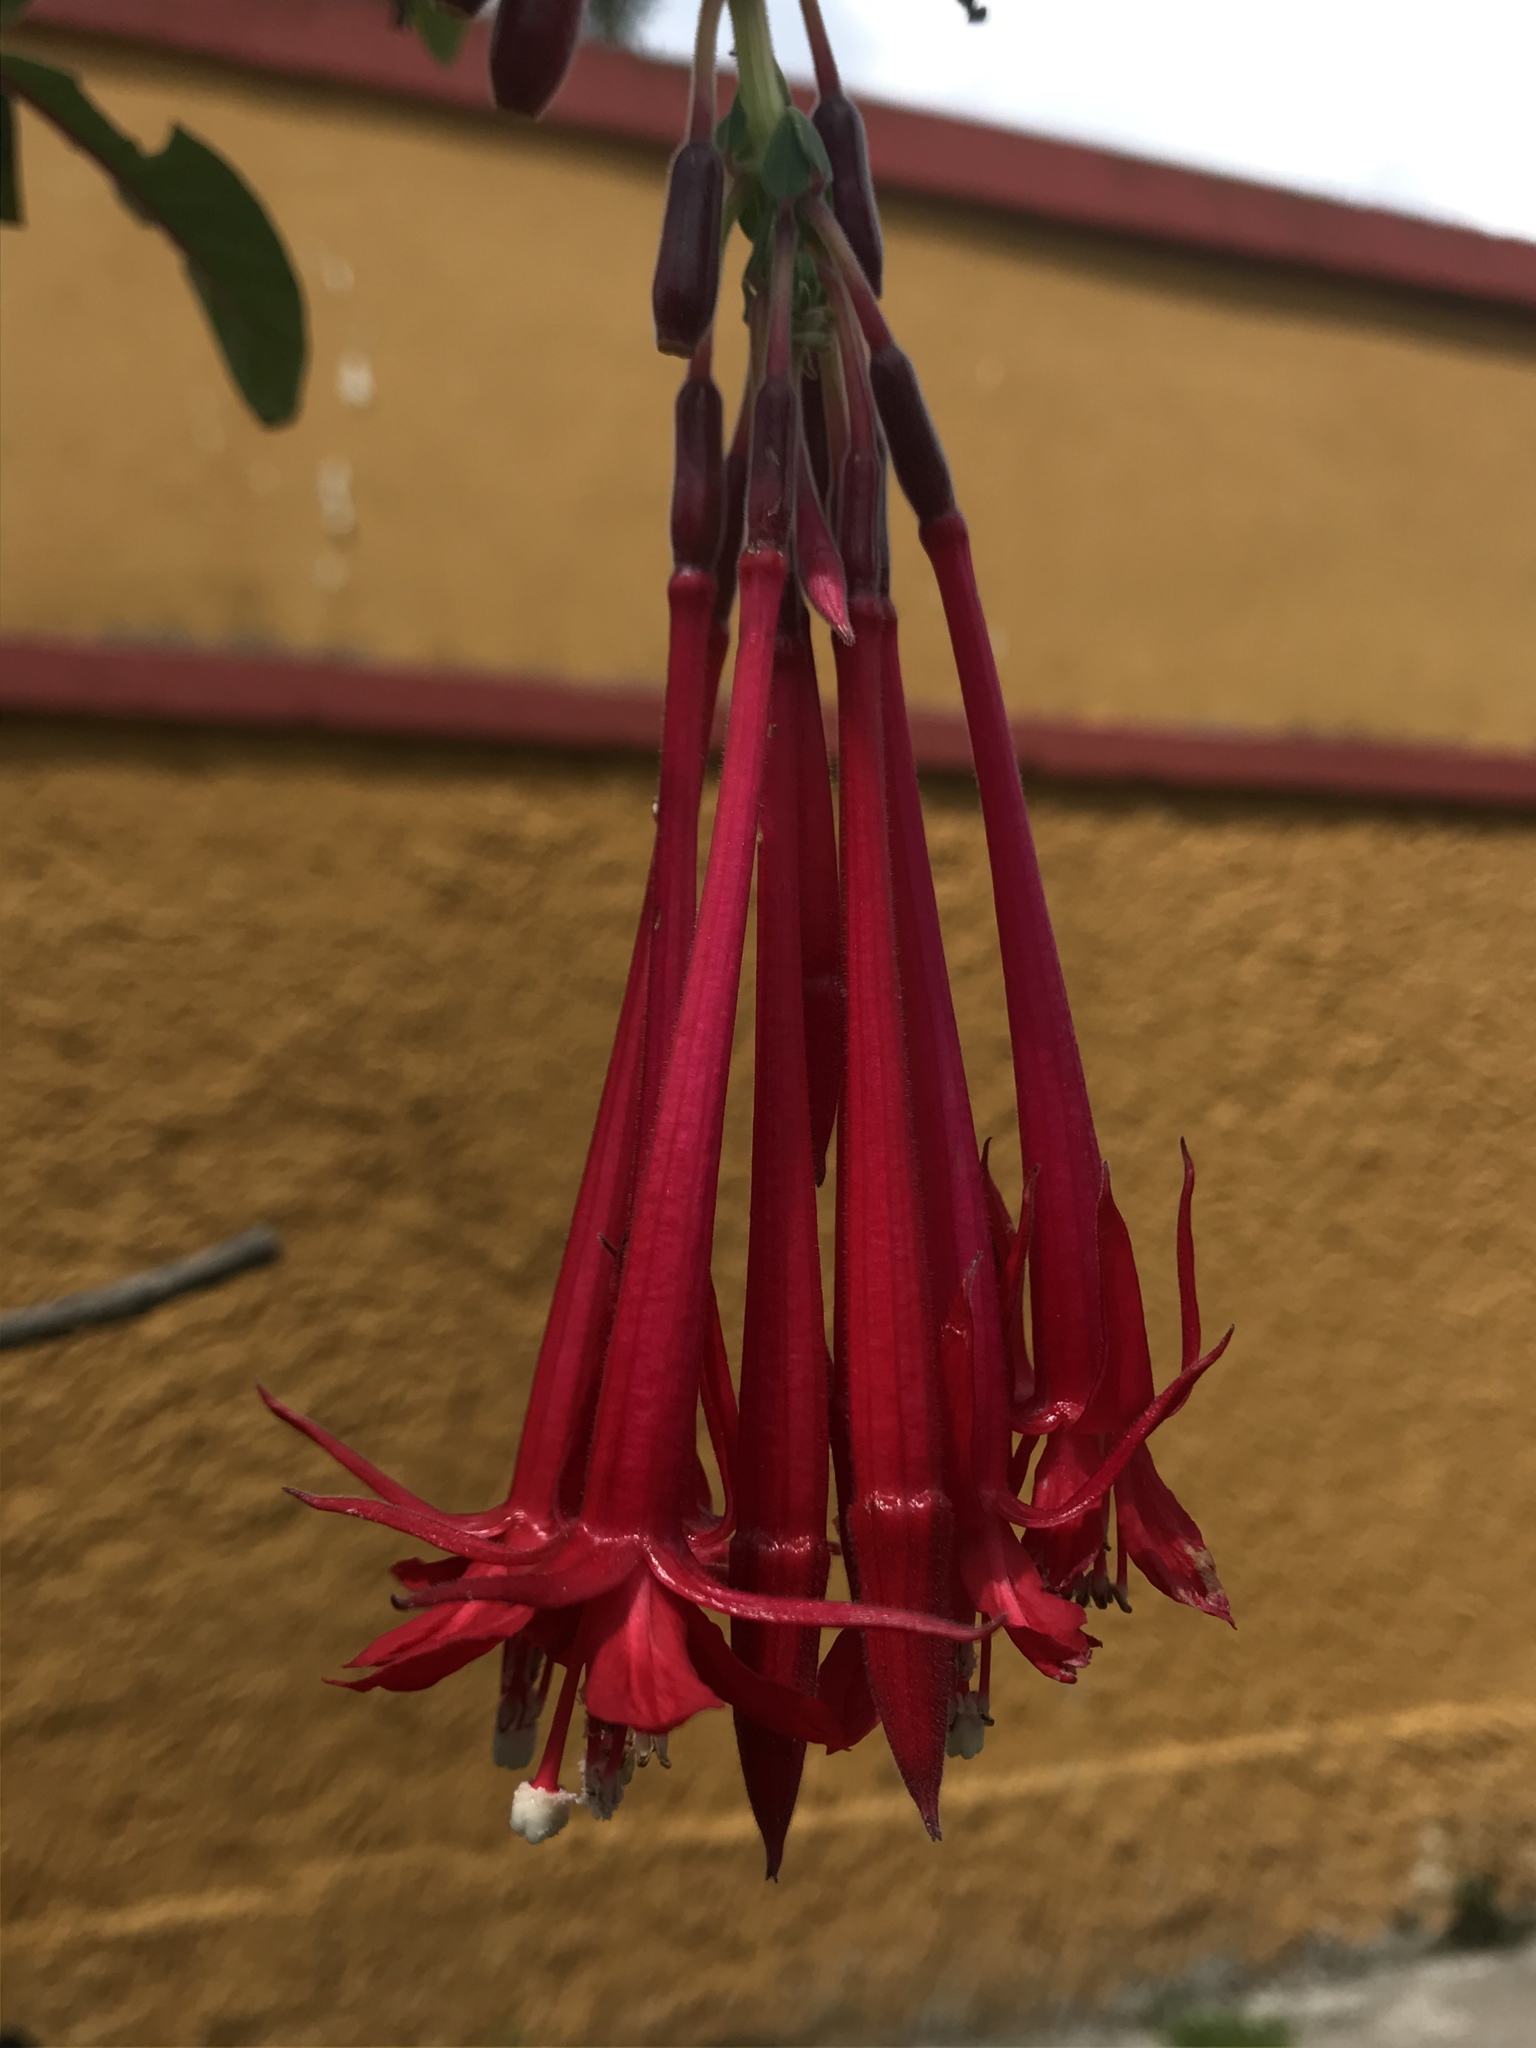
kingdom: Plantae
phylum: Tracheophyta
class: Magnoliopsida
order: Myrtales
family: Onagraceae
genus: Fuchsia
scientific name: Fuchsia boliviana
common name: Bolivian fuchsia
